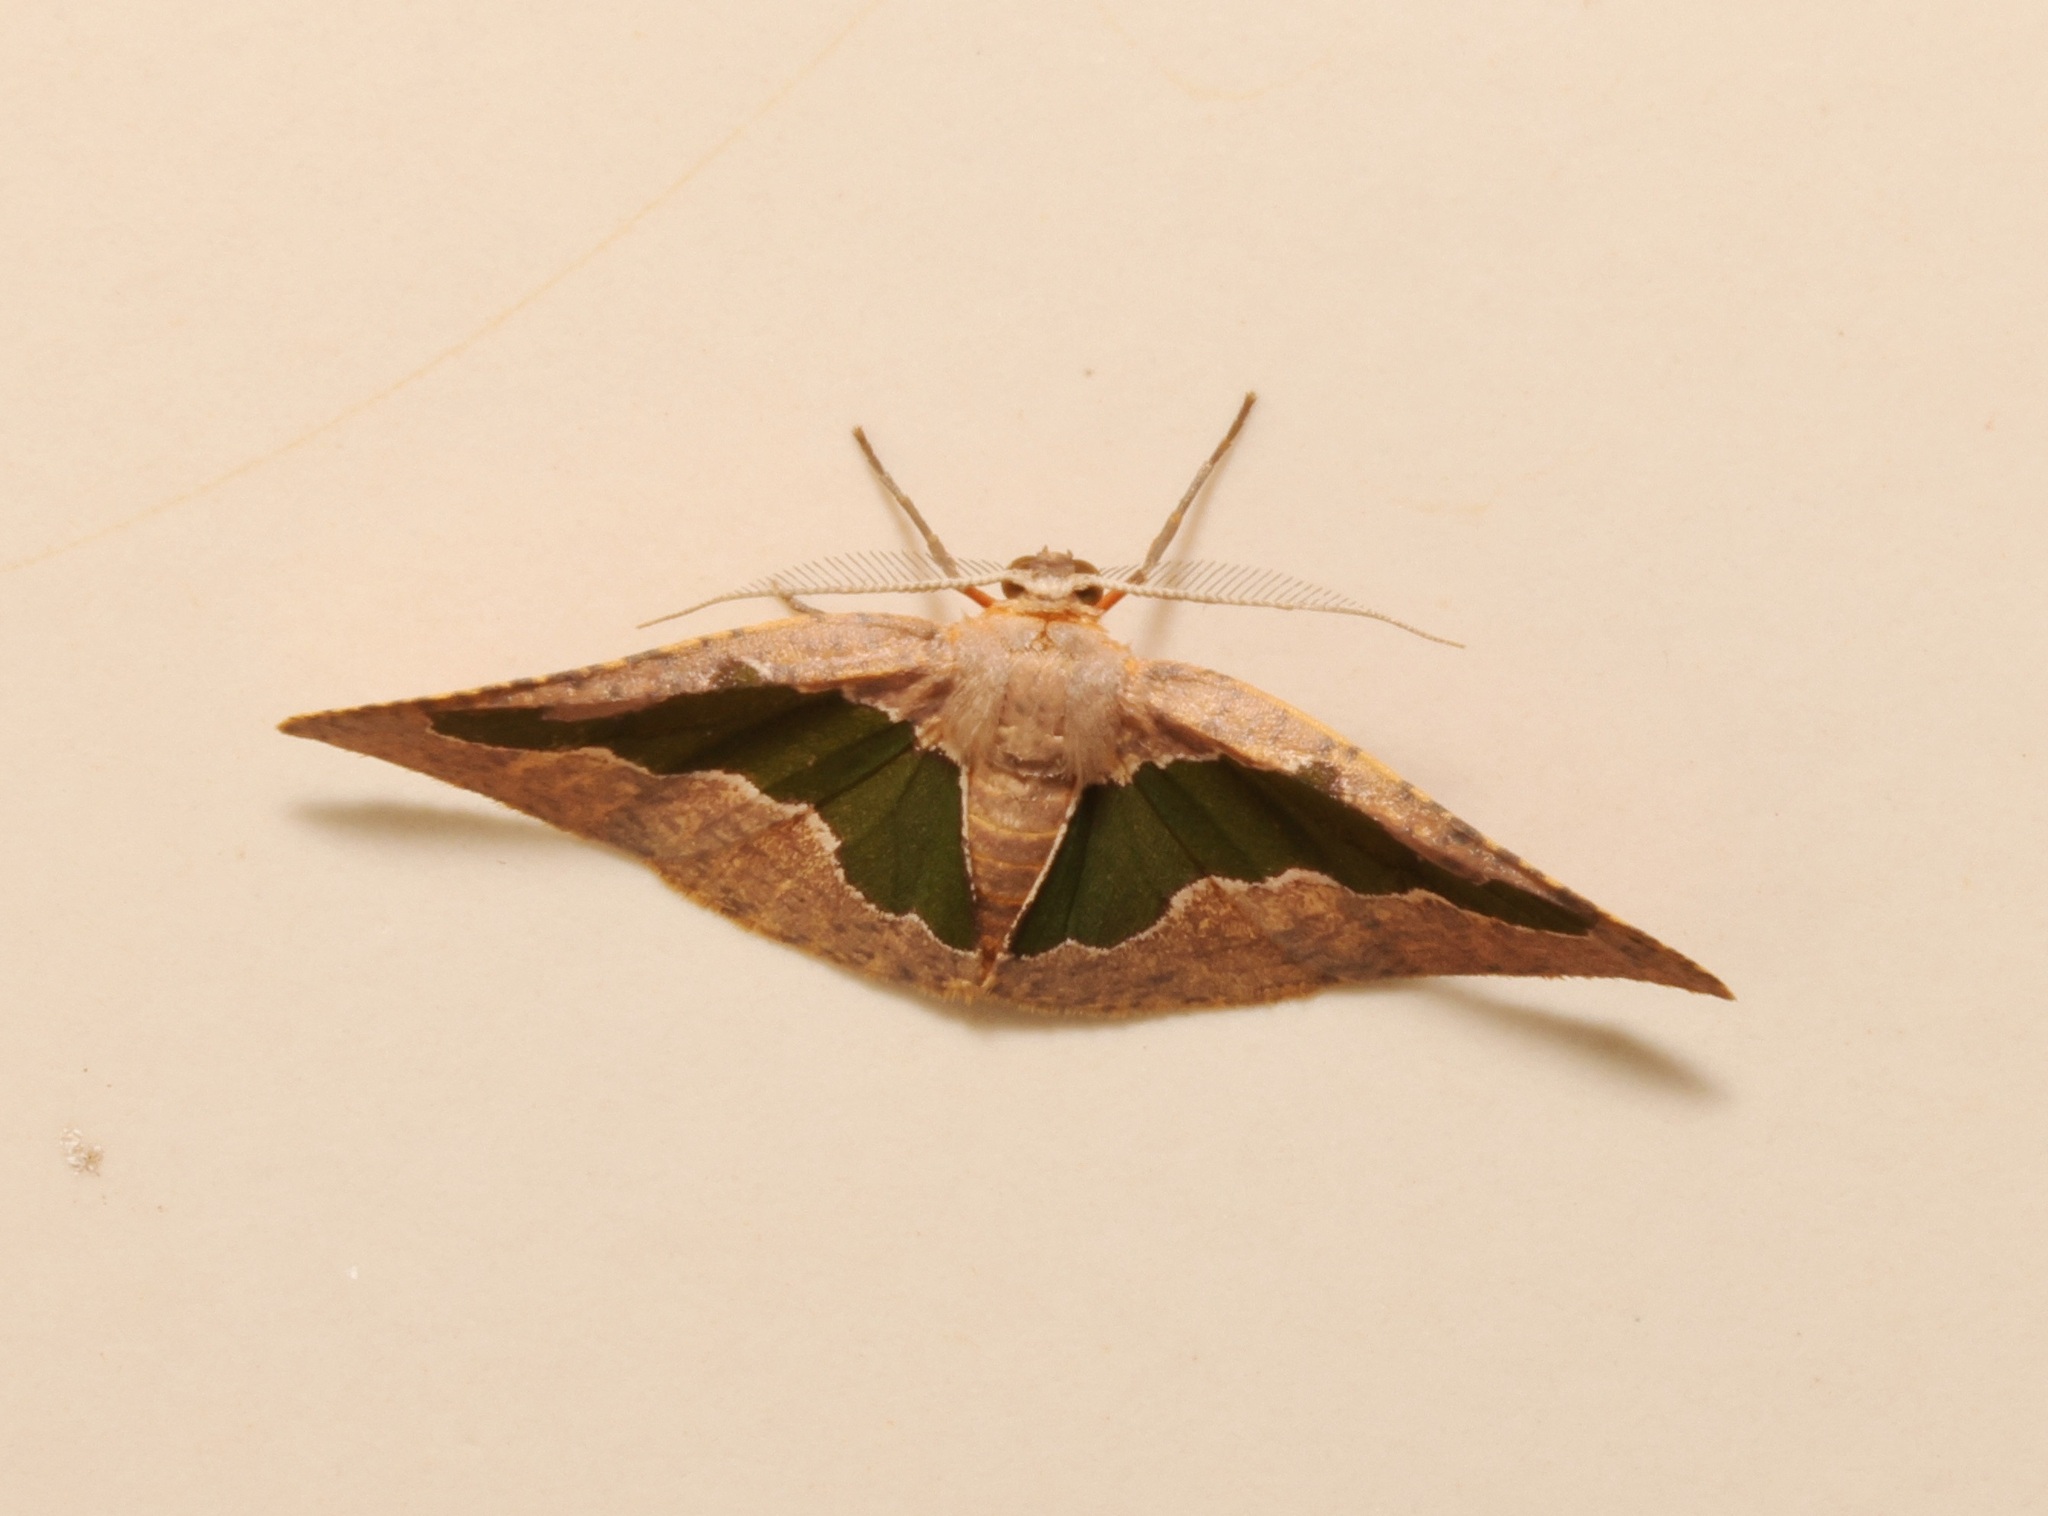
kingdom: Animalia
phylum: Arthropoda
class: Insecta
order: Lepidoptera
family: Geometridae
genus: Celenna
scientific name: Celenna festivaria
